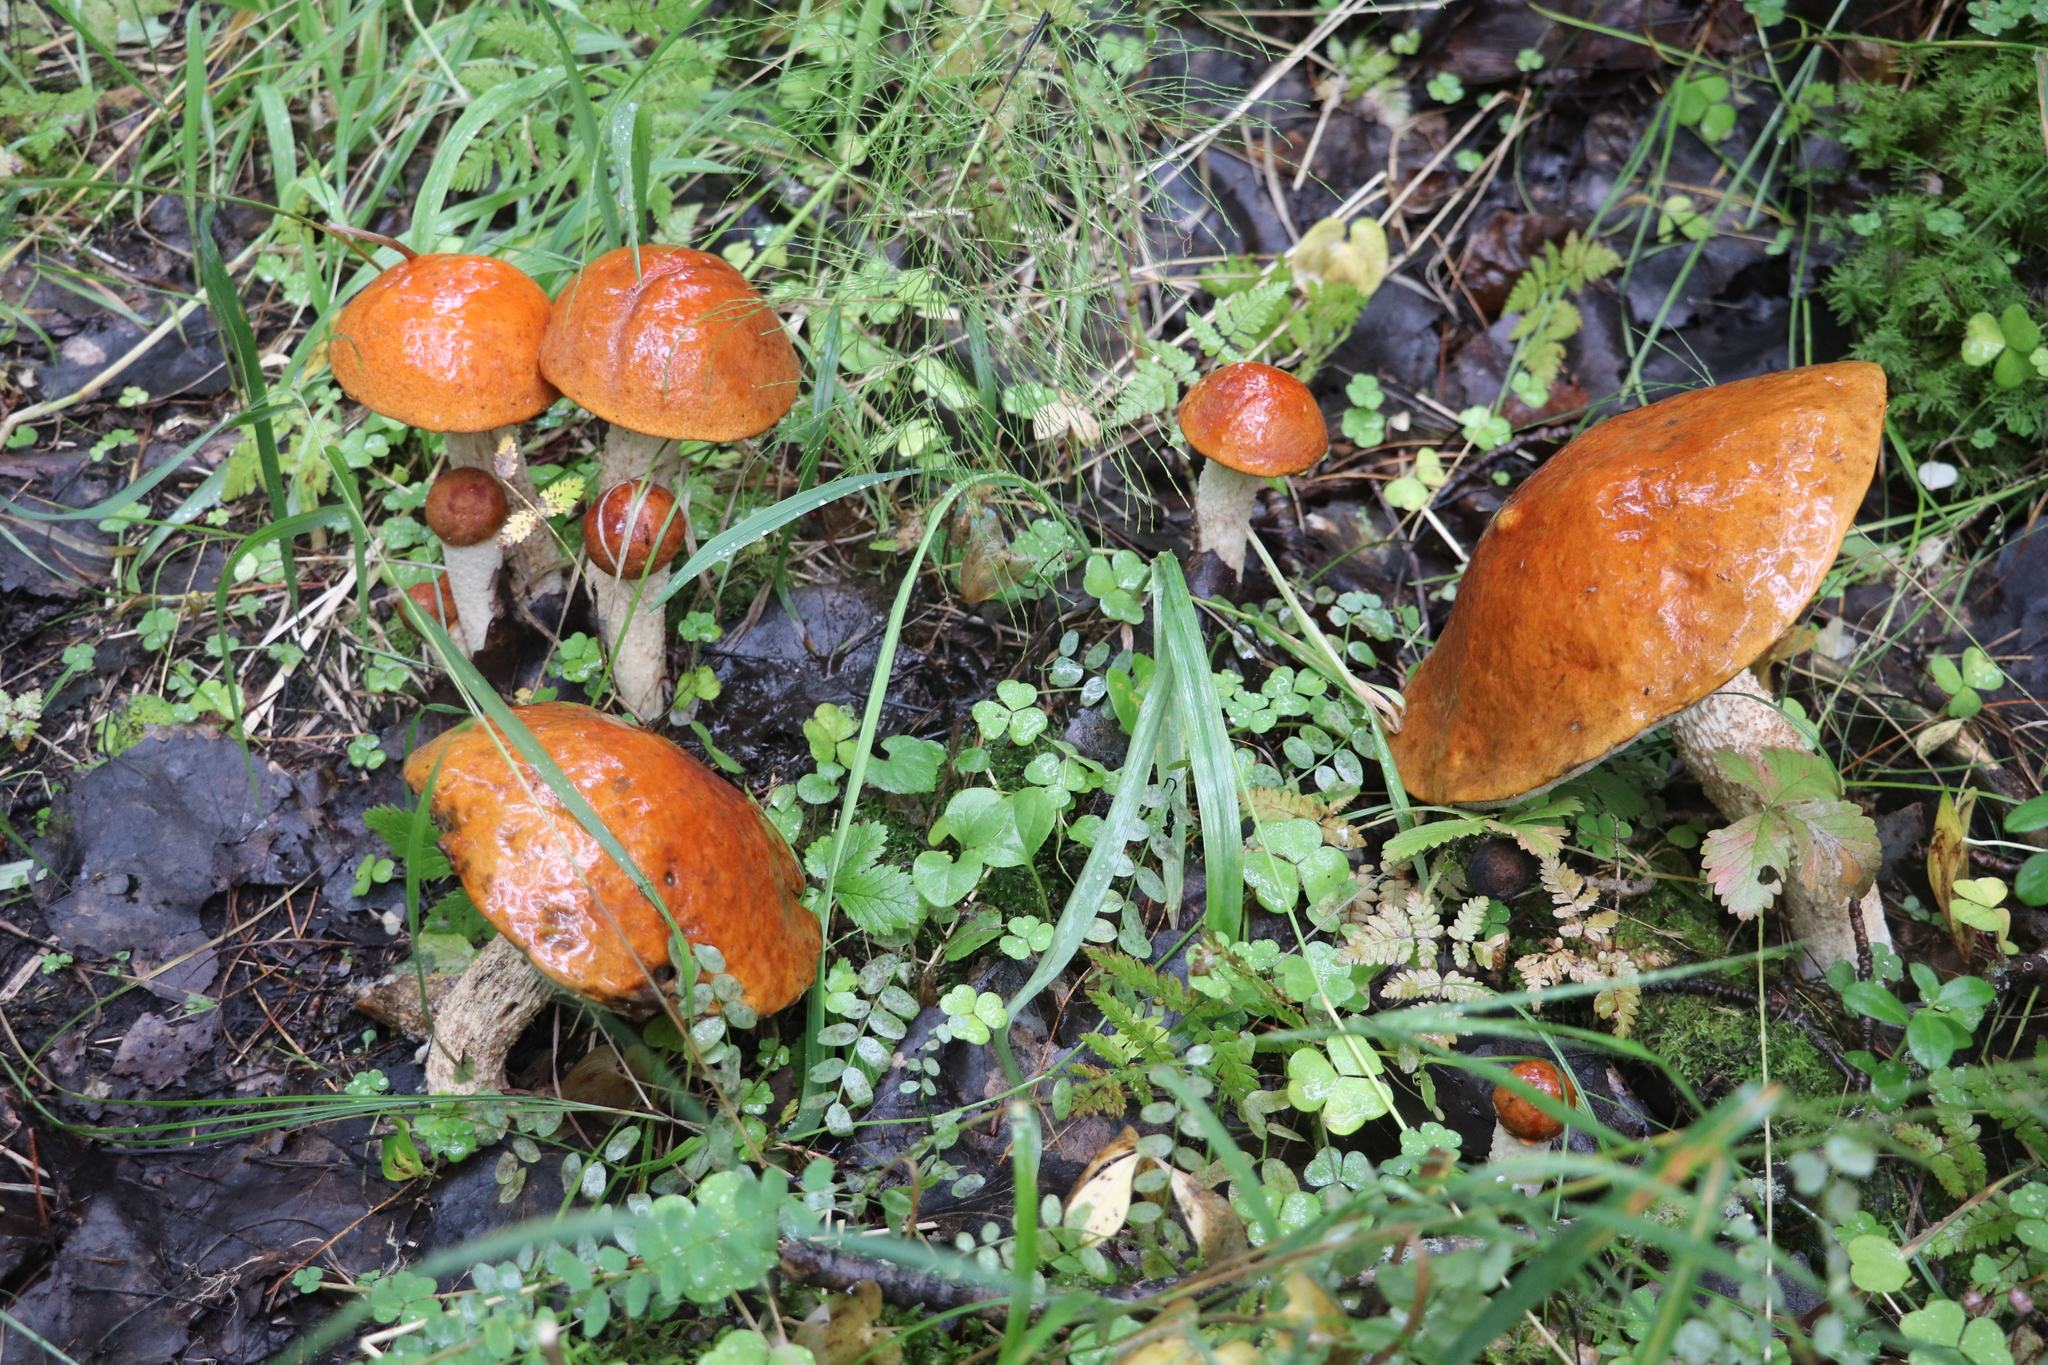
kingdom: Fungi
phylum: Basidiomycota
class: Agaricomycetes
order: Boletales
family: Boletaceae
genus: Leccinum
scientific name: Leccinum albostipitatum
